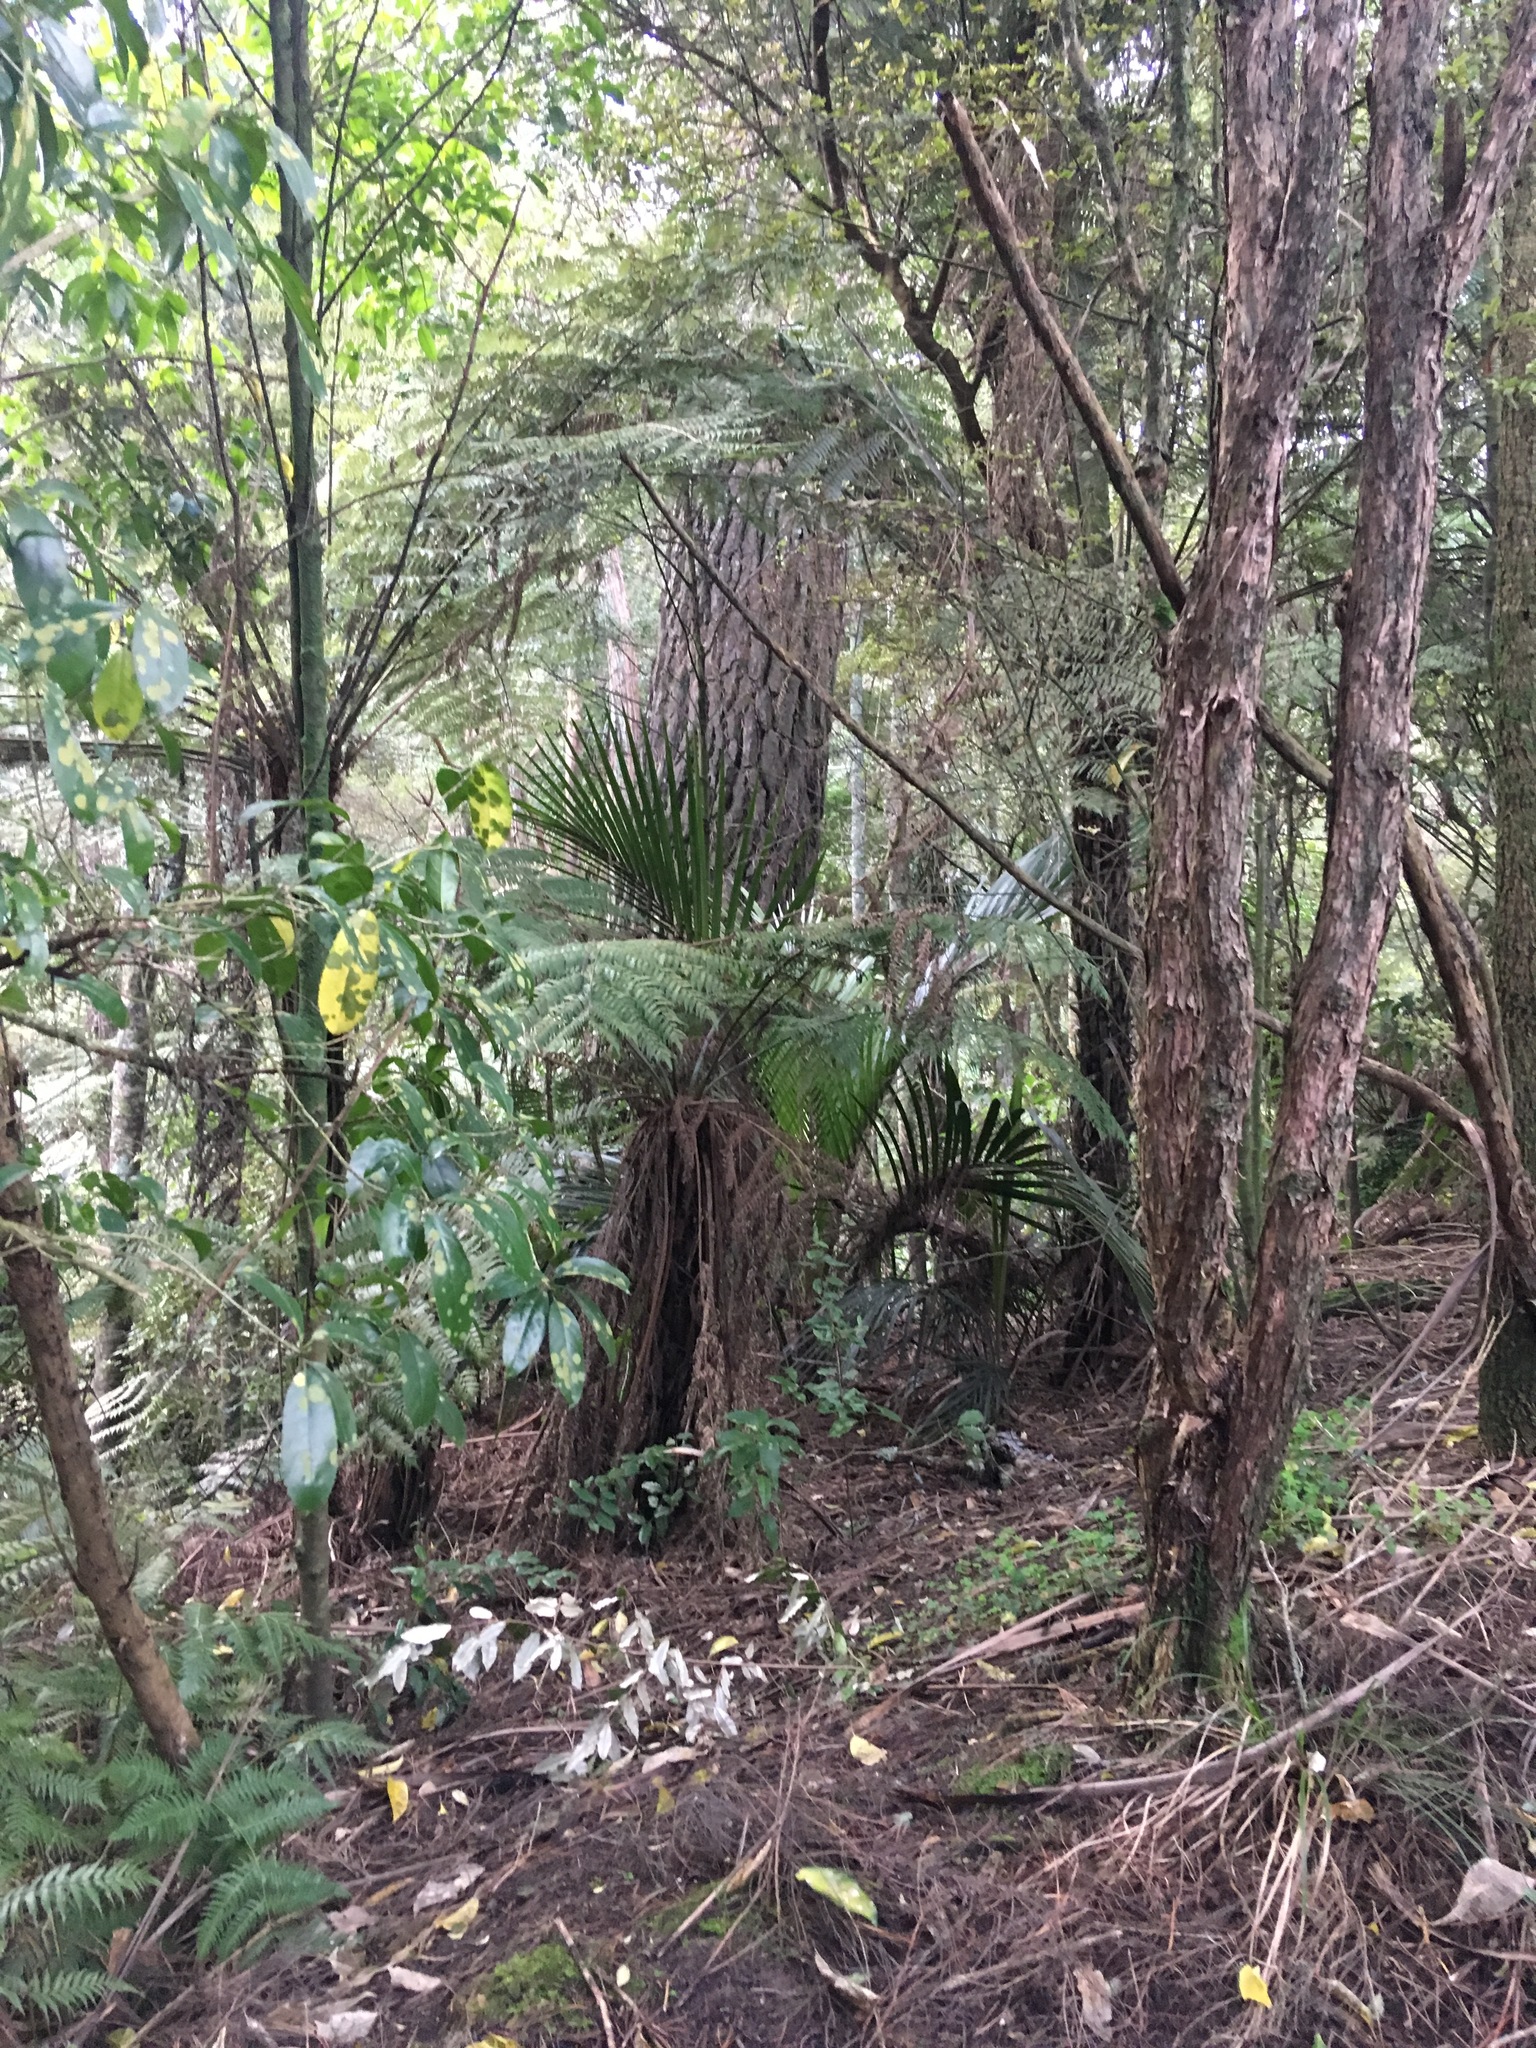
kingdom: Plantae
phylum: Tracheophyta
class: Pinopsida
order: Pinales
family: Pinaceae
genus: Pinus
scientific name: Pinus radiata
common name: Monterey pine
